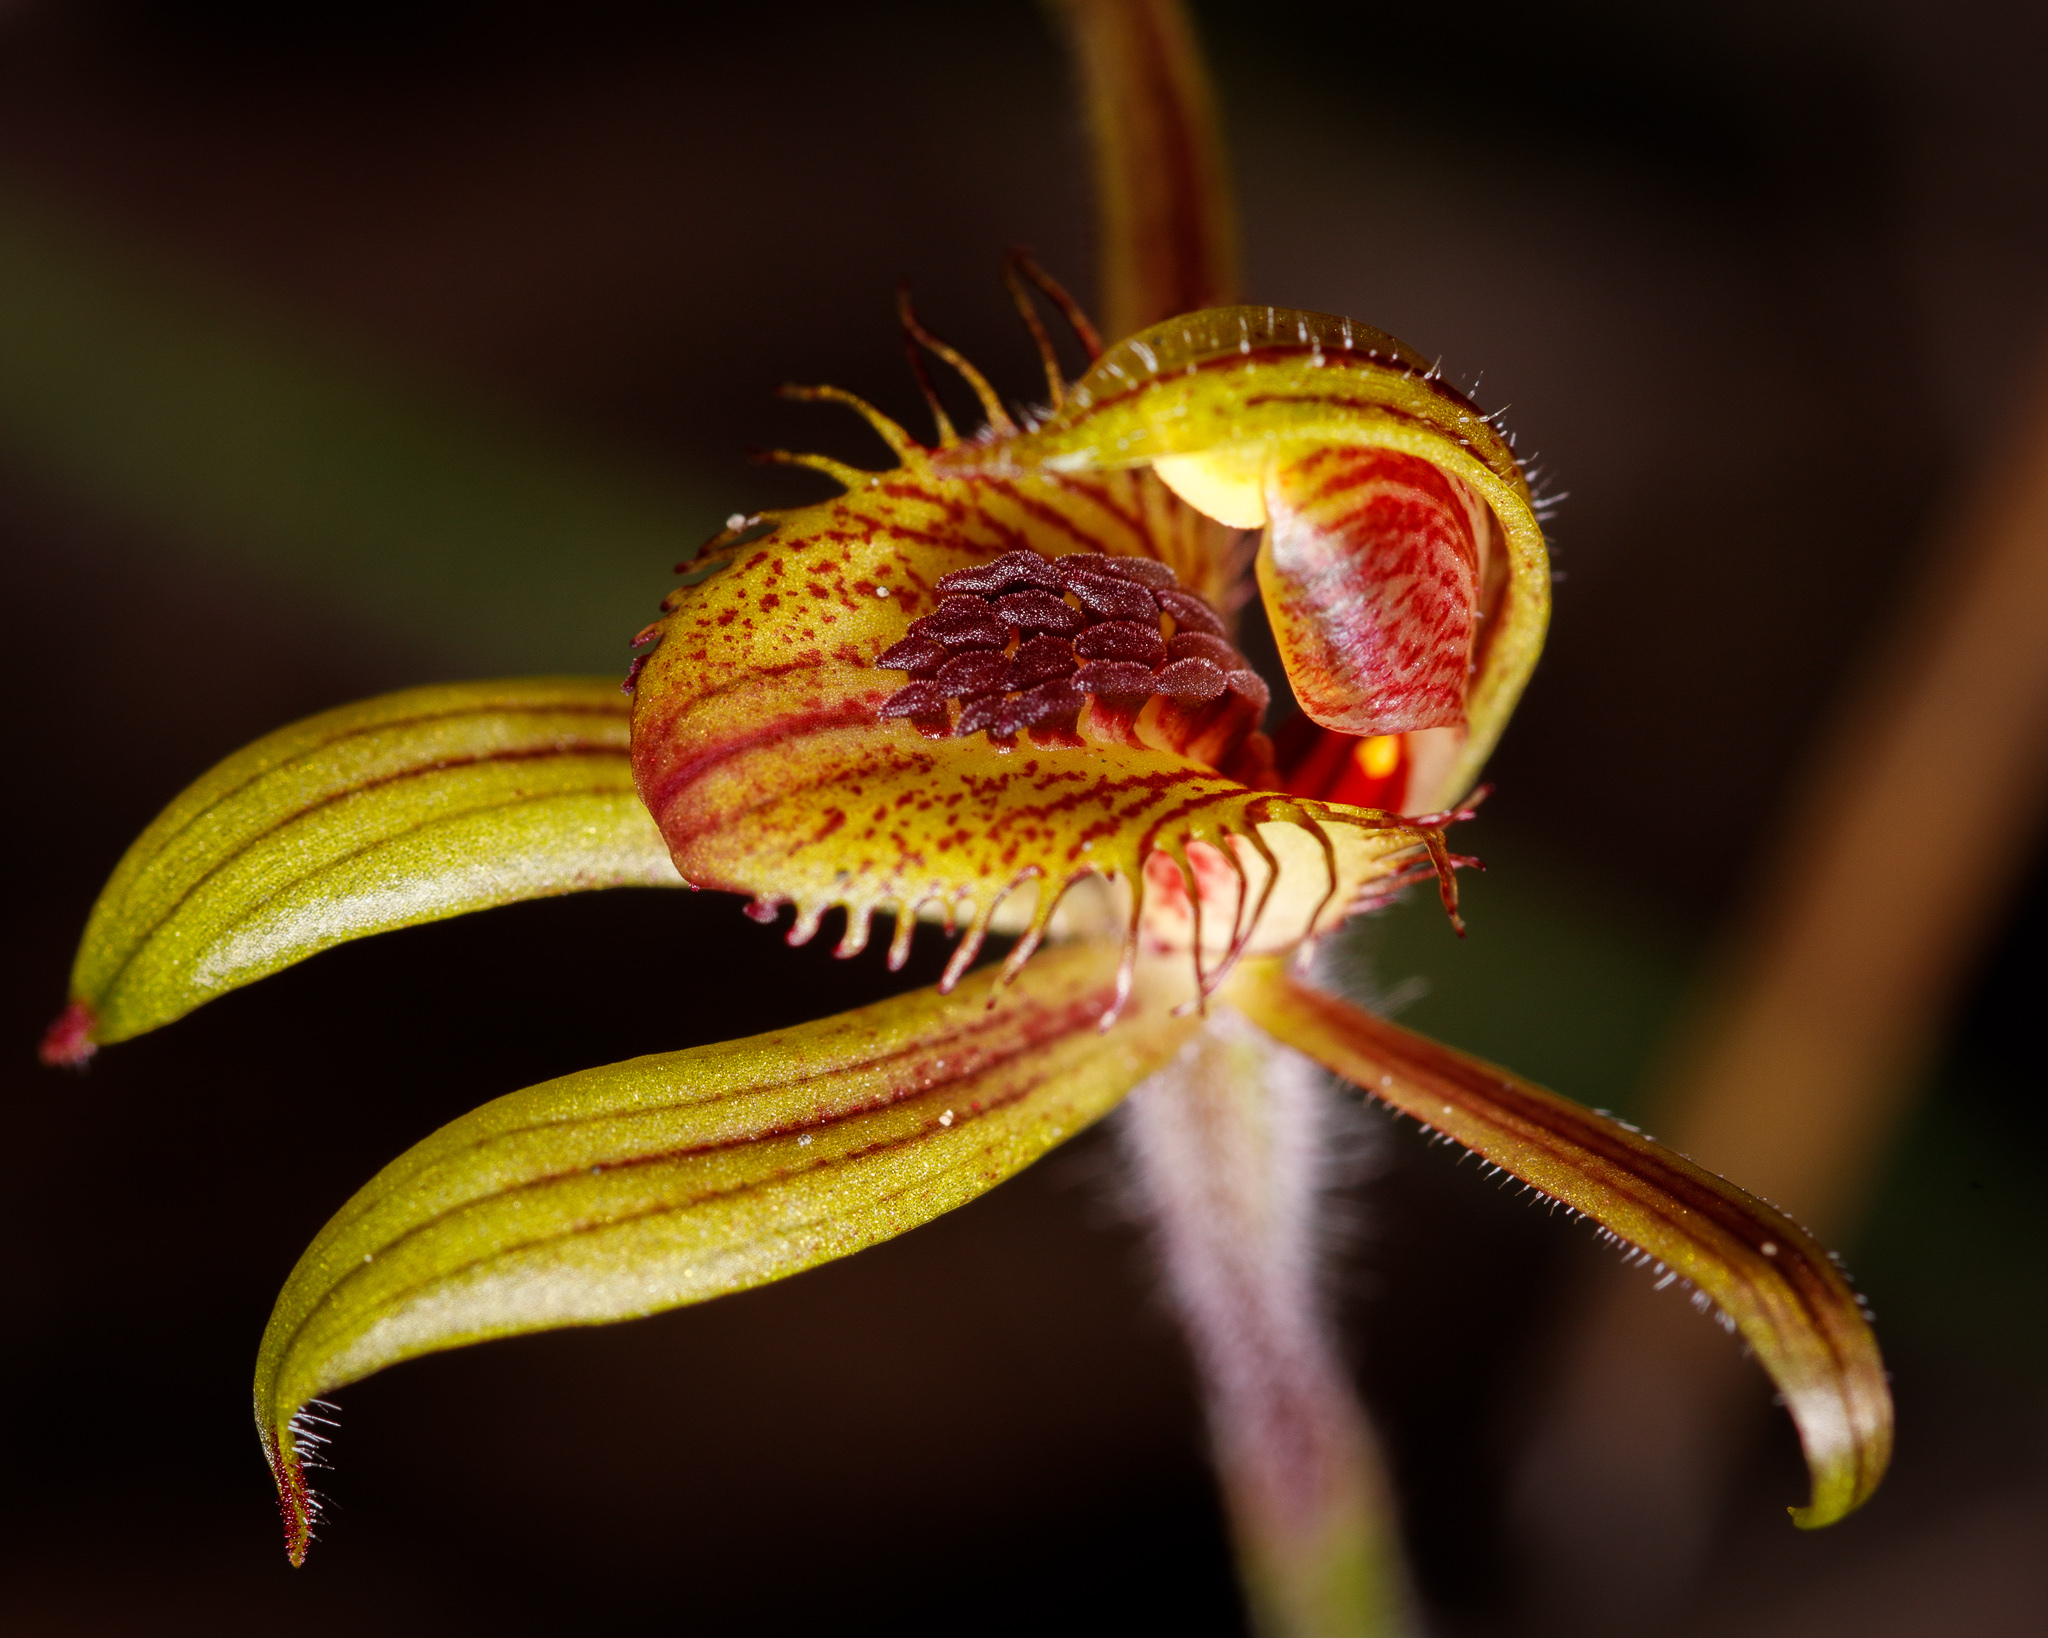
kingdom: Plantae
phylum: Tracheophyta
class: Liliopsida
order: Asparagales
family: Orchidaceae
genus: Caladenia
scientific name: Caladenia discoidea
